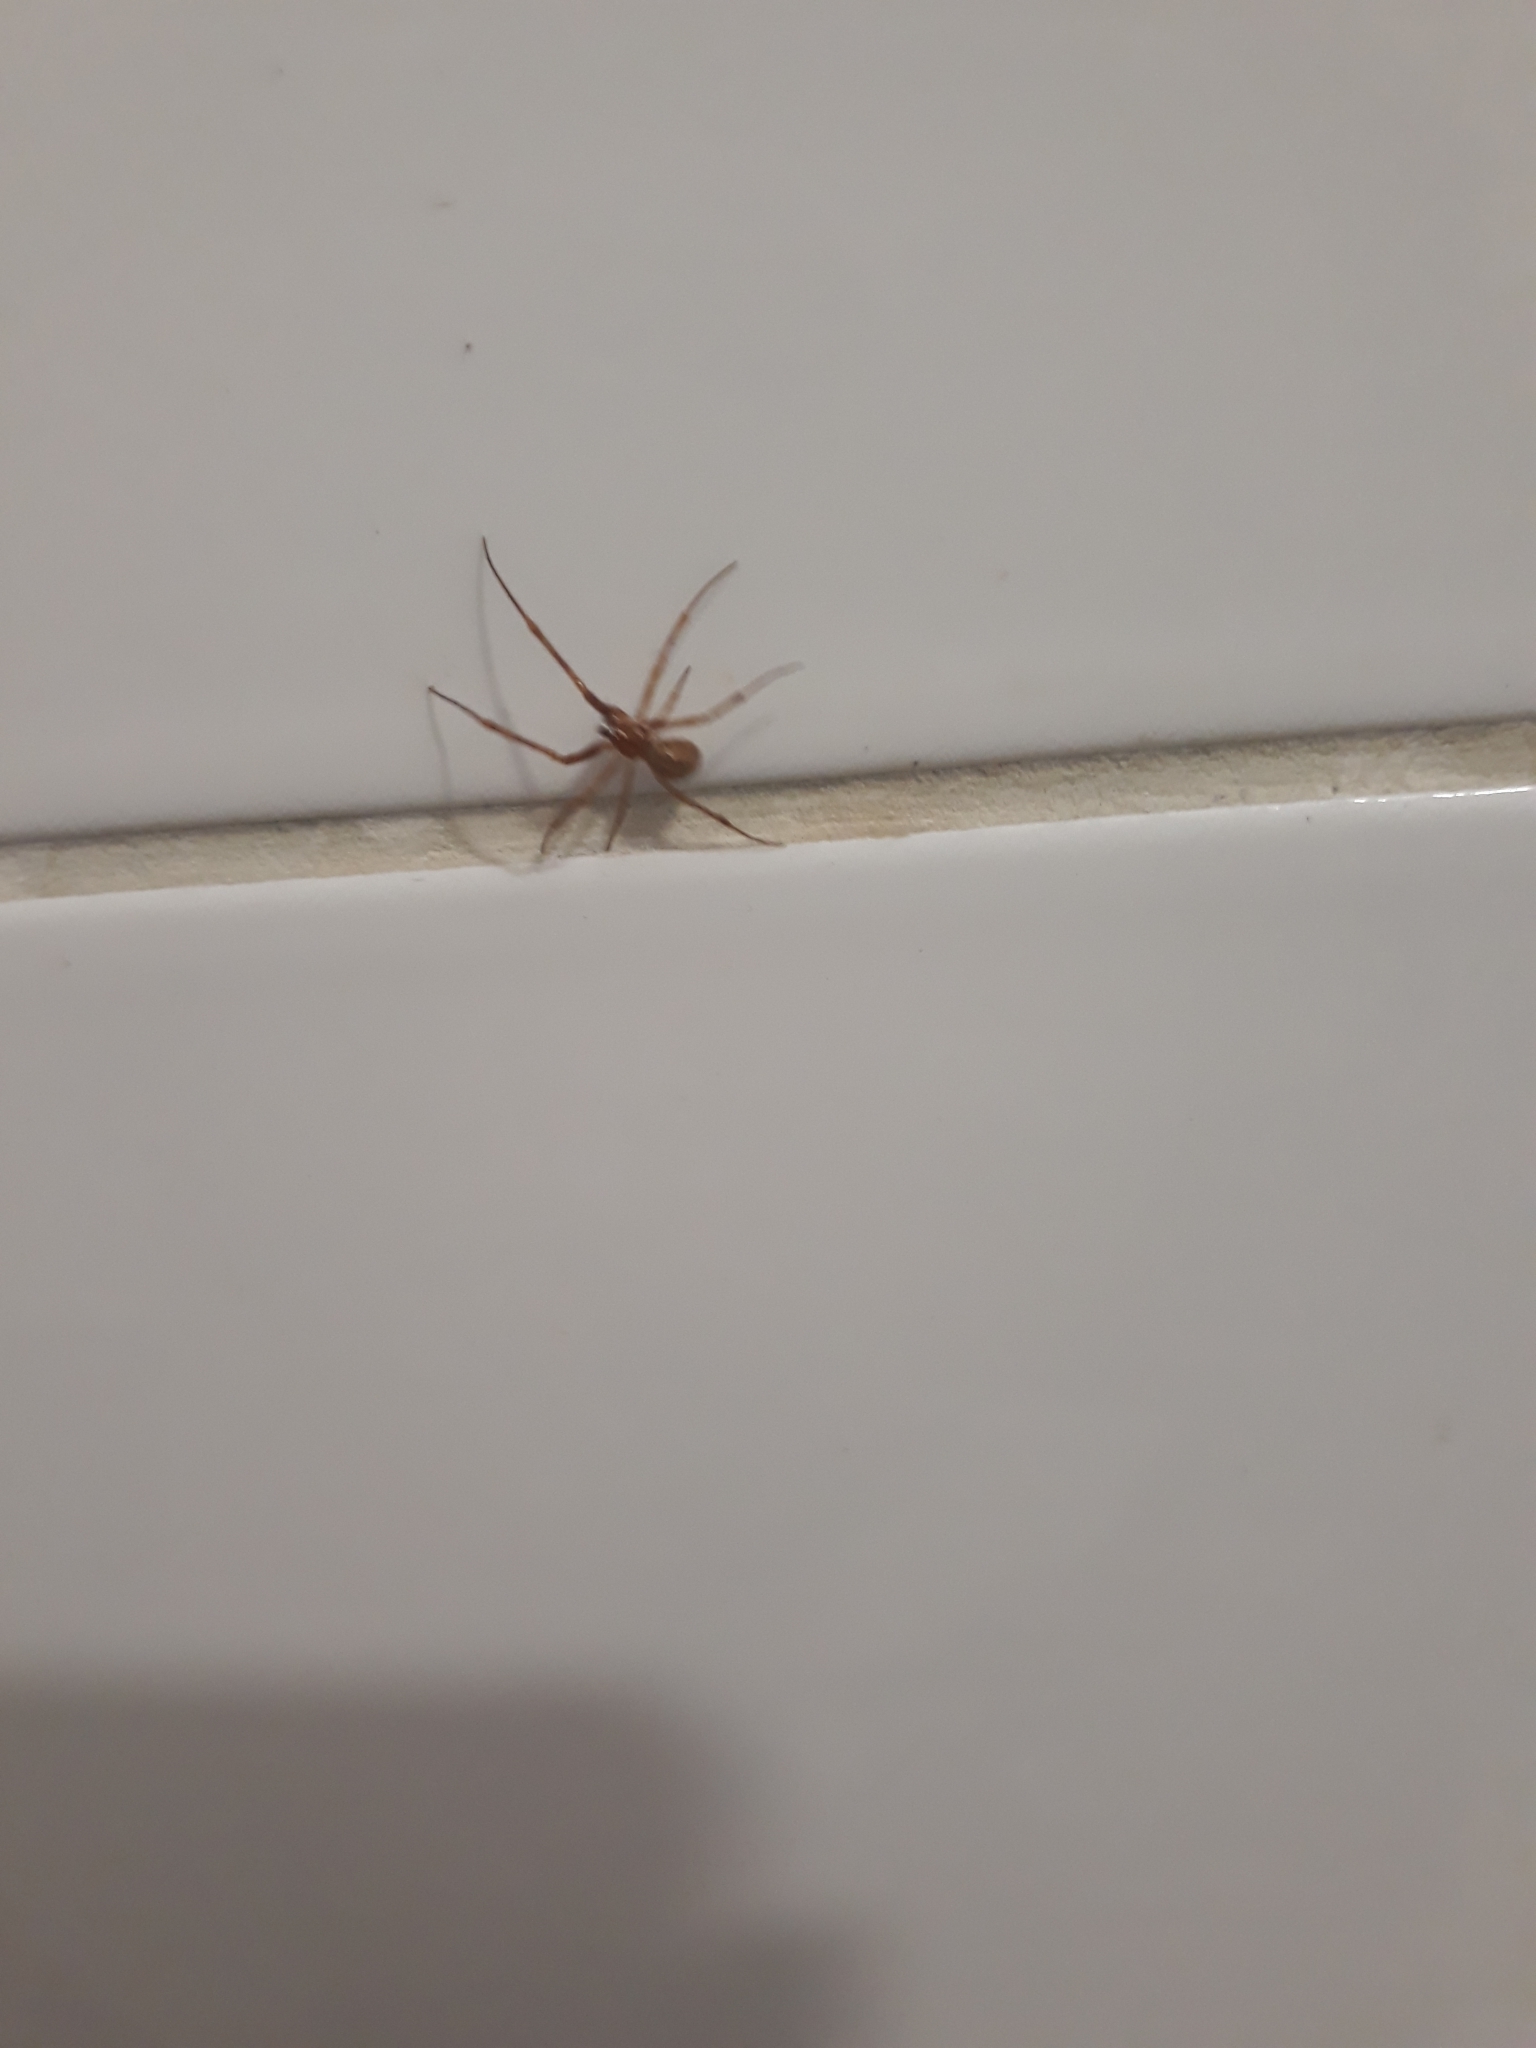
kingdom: Animalia
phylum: Arthropoda
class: Arachnida
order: Araneae
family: Theridiidae
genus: Nesticodes
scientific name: Nesticodes rufipes
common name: Cobweb spiders
